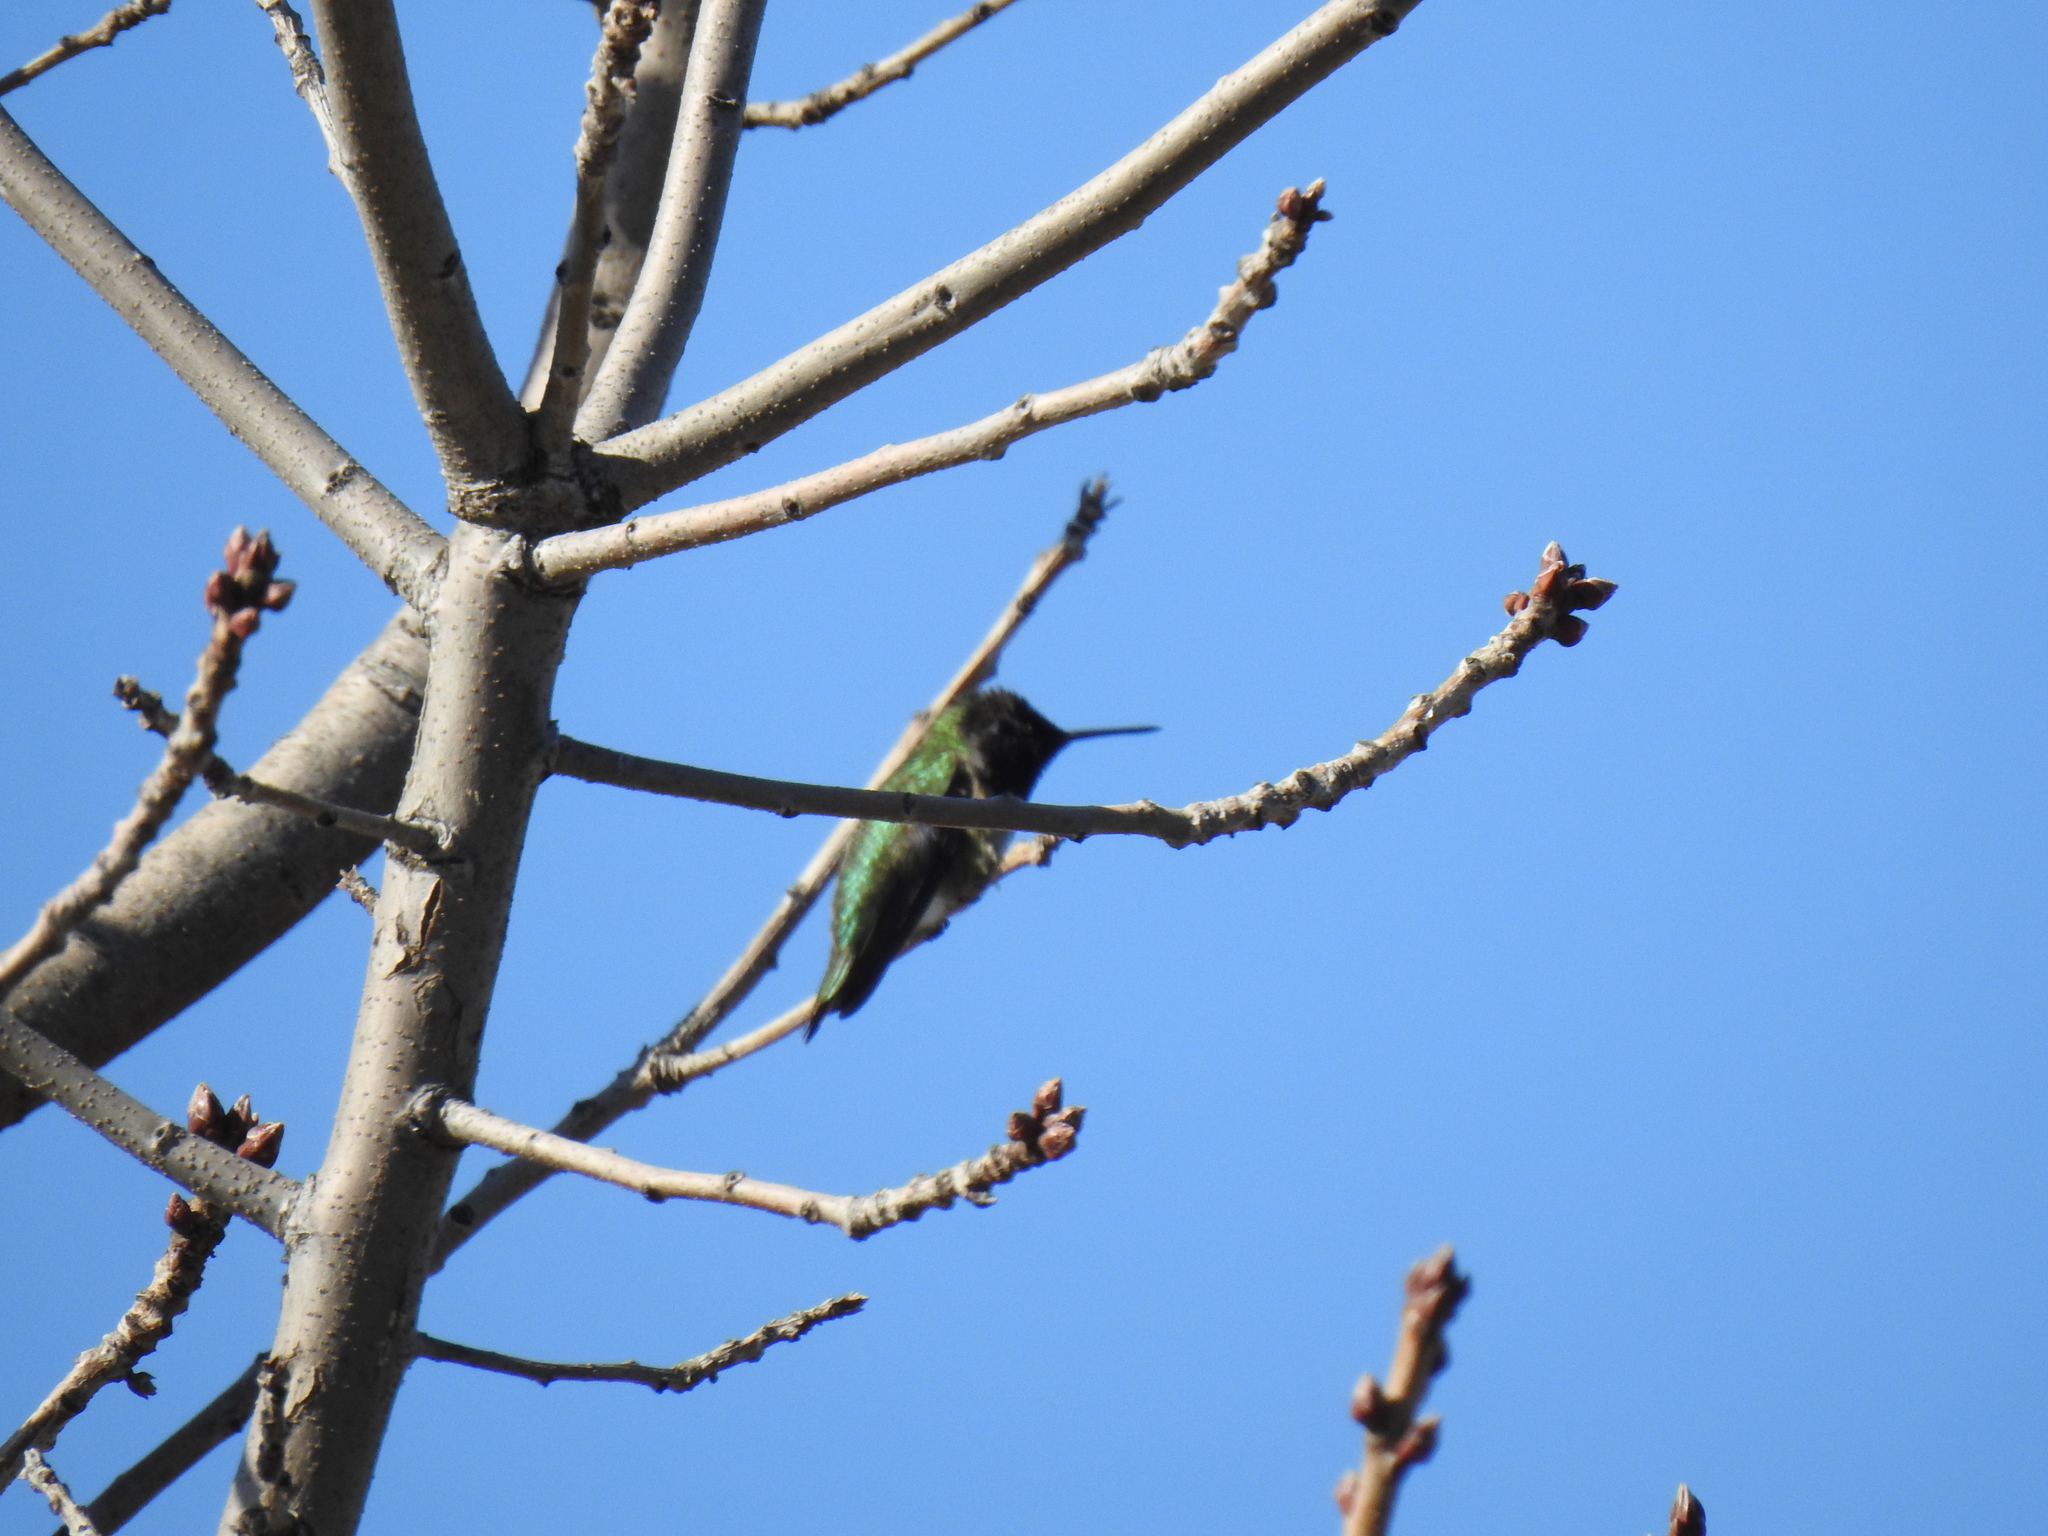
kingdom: Animalia
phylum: Chordata
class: Aves
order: Apodiformes
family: Trochilidae
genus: Calypte
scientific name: Calypte anna
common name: Anna's hummingbird
